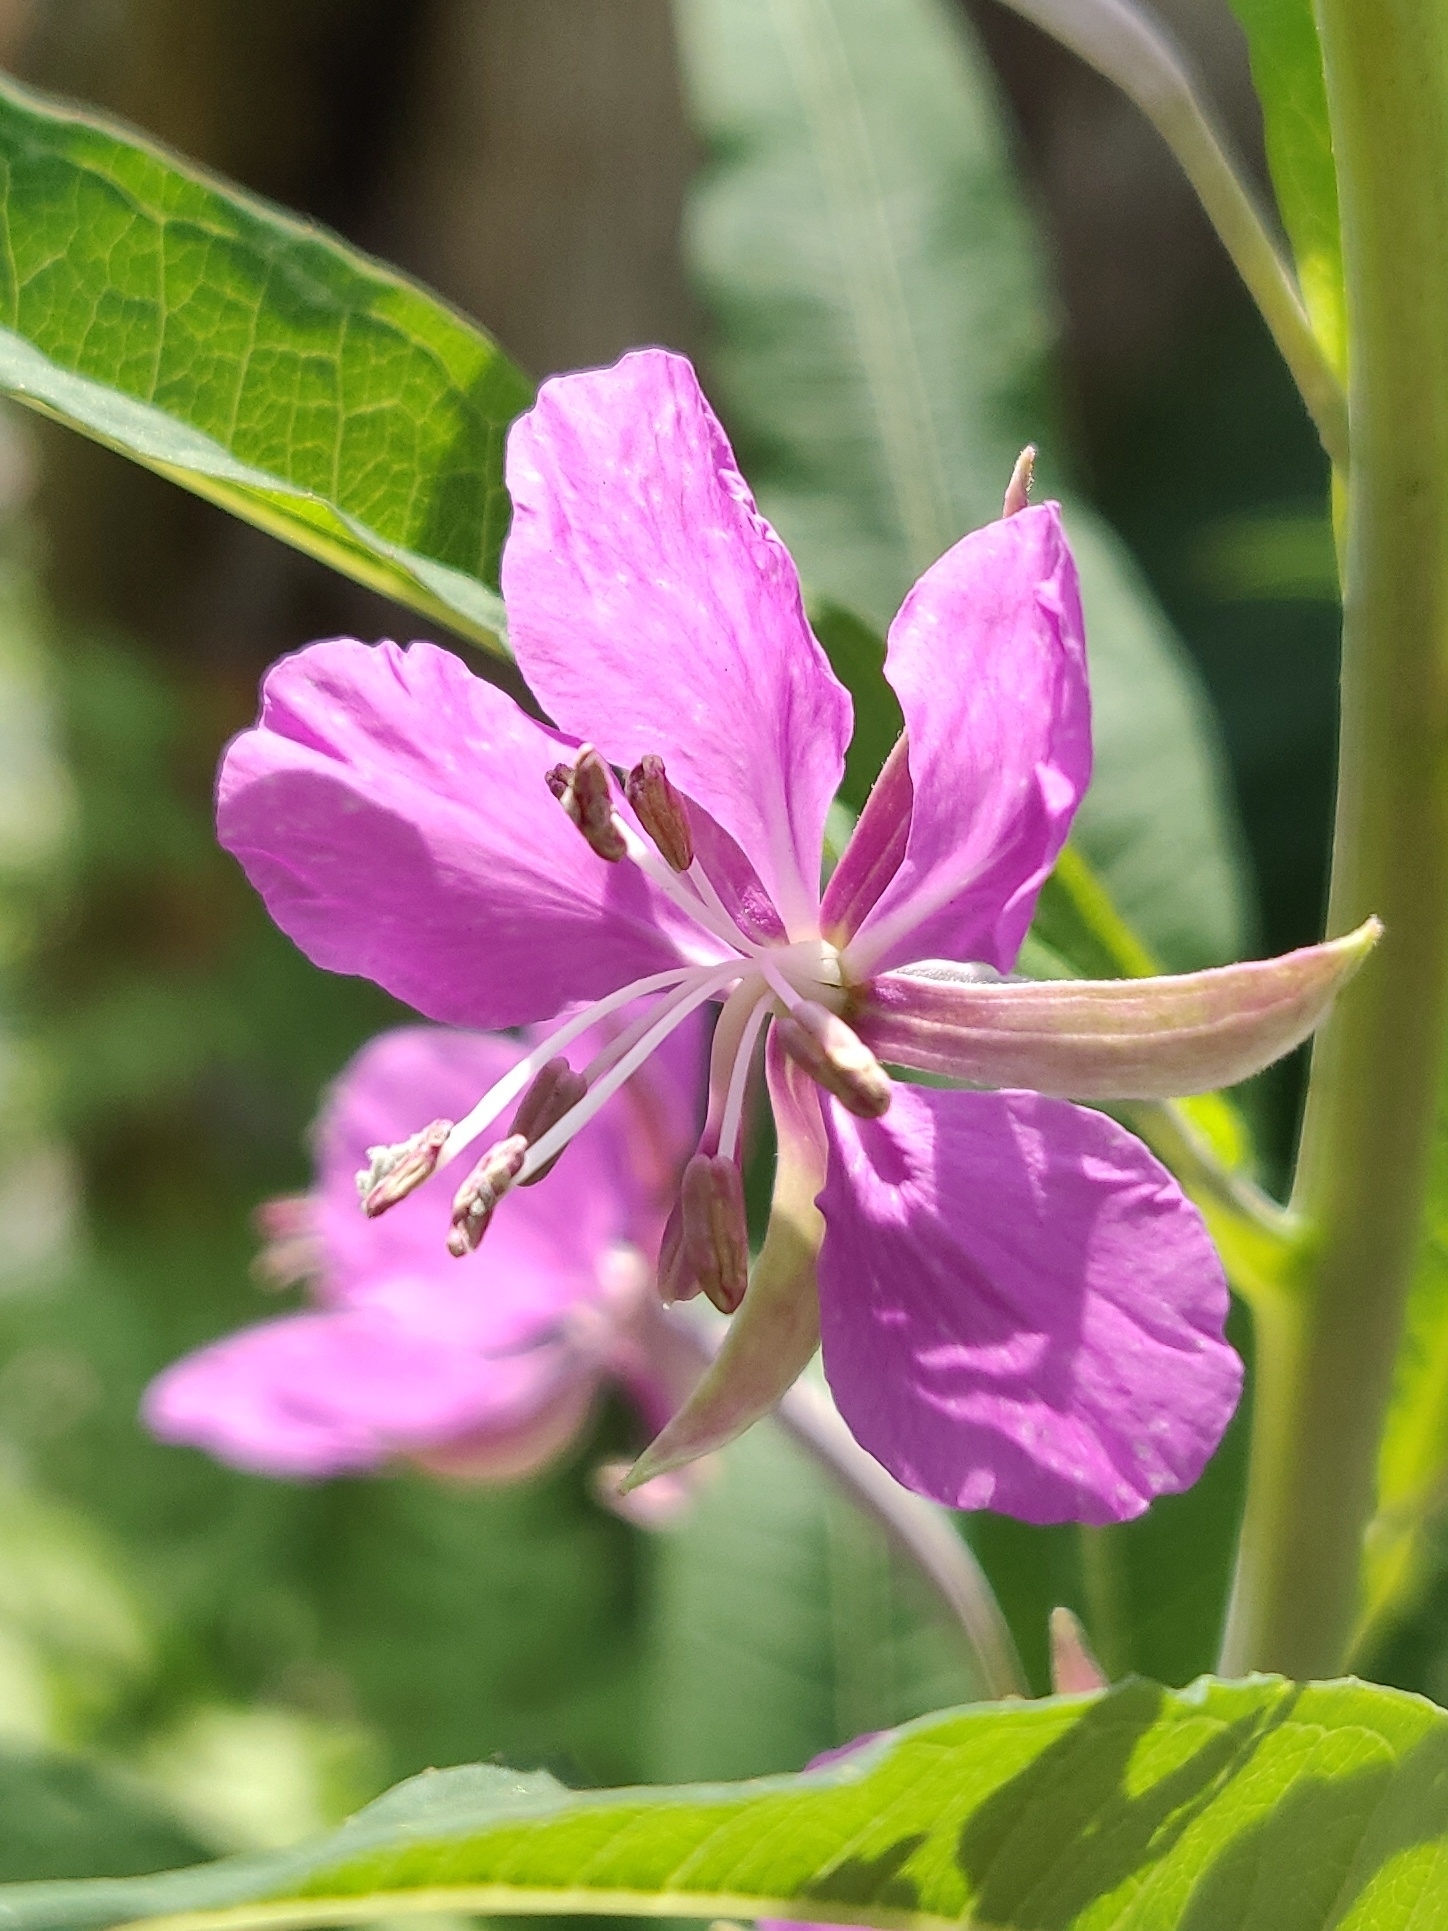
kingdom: Plantae
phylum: Tracheophyta
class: Magnoliopsida
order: Myrtales
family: Onagraceae
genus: Chamaenerion
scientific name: Chamaenerion angustifolium
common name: Fireweed
